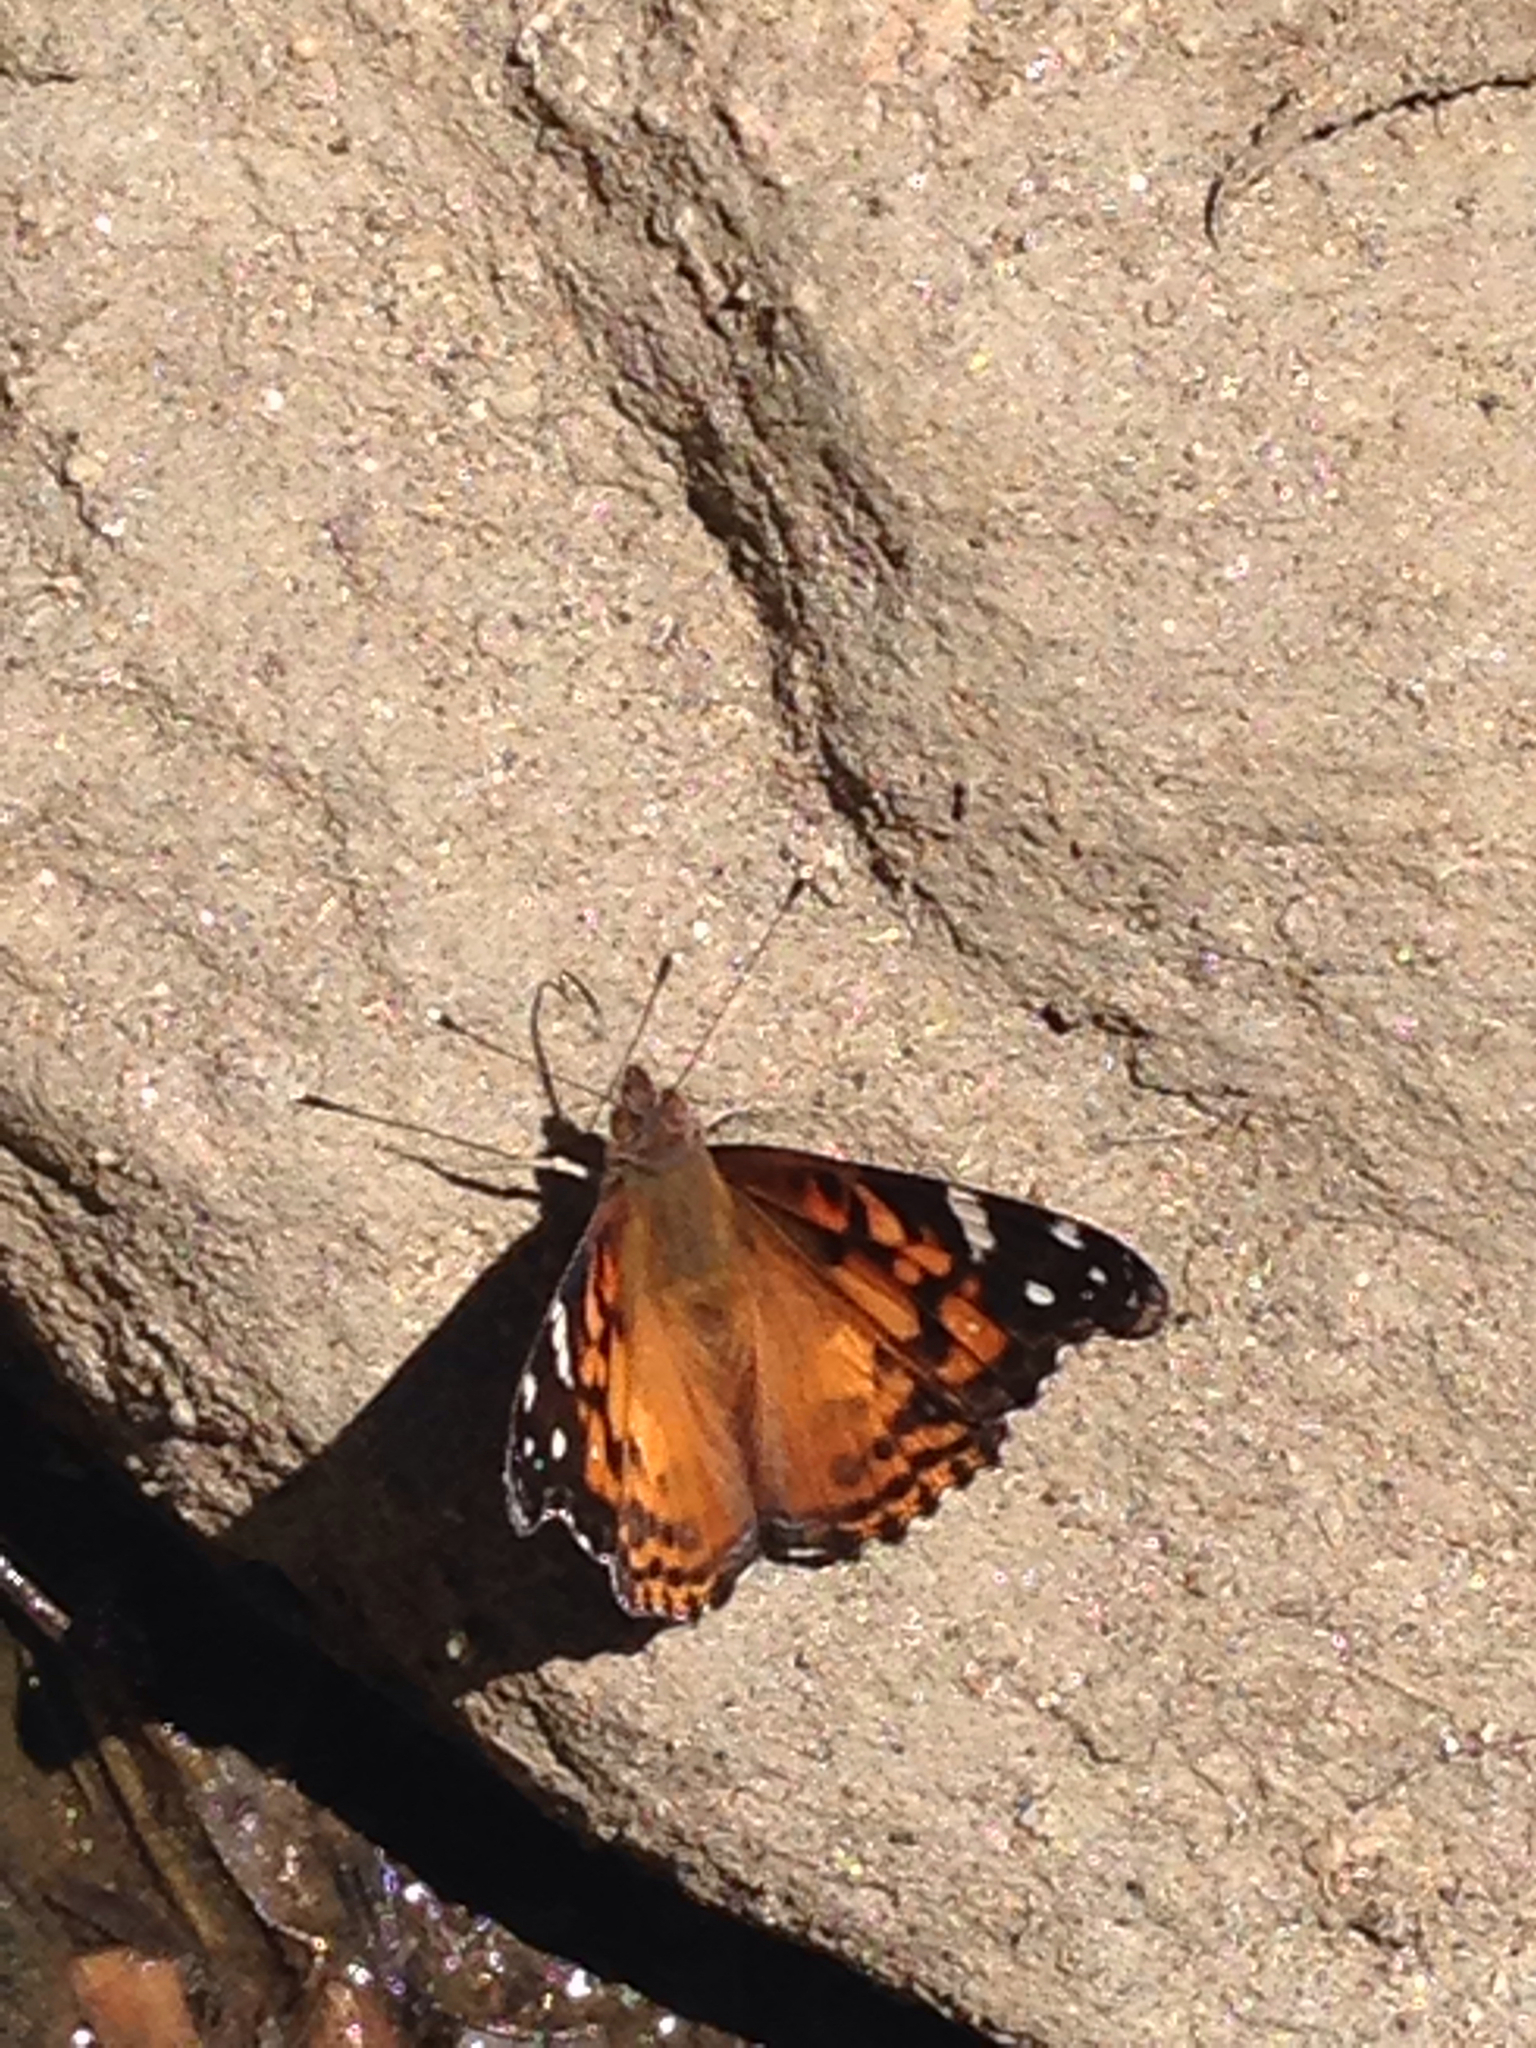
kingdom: Animalia
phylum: Arthropoda
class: Insecta
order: Lepidoptera
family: Nymphalidae
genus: Vanessa
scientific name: Vanessa virginiensis
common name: American lady
